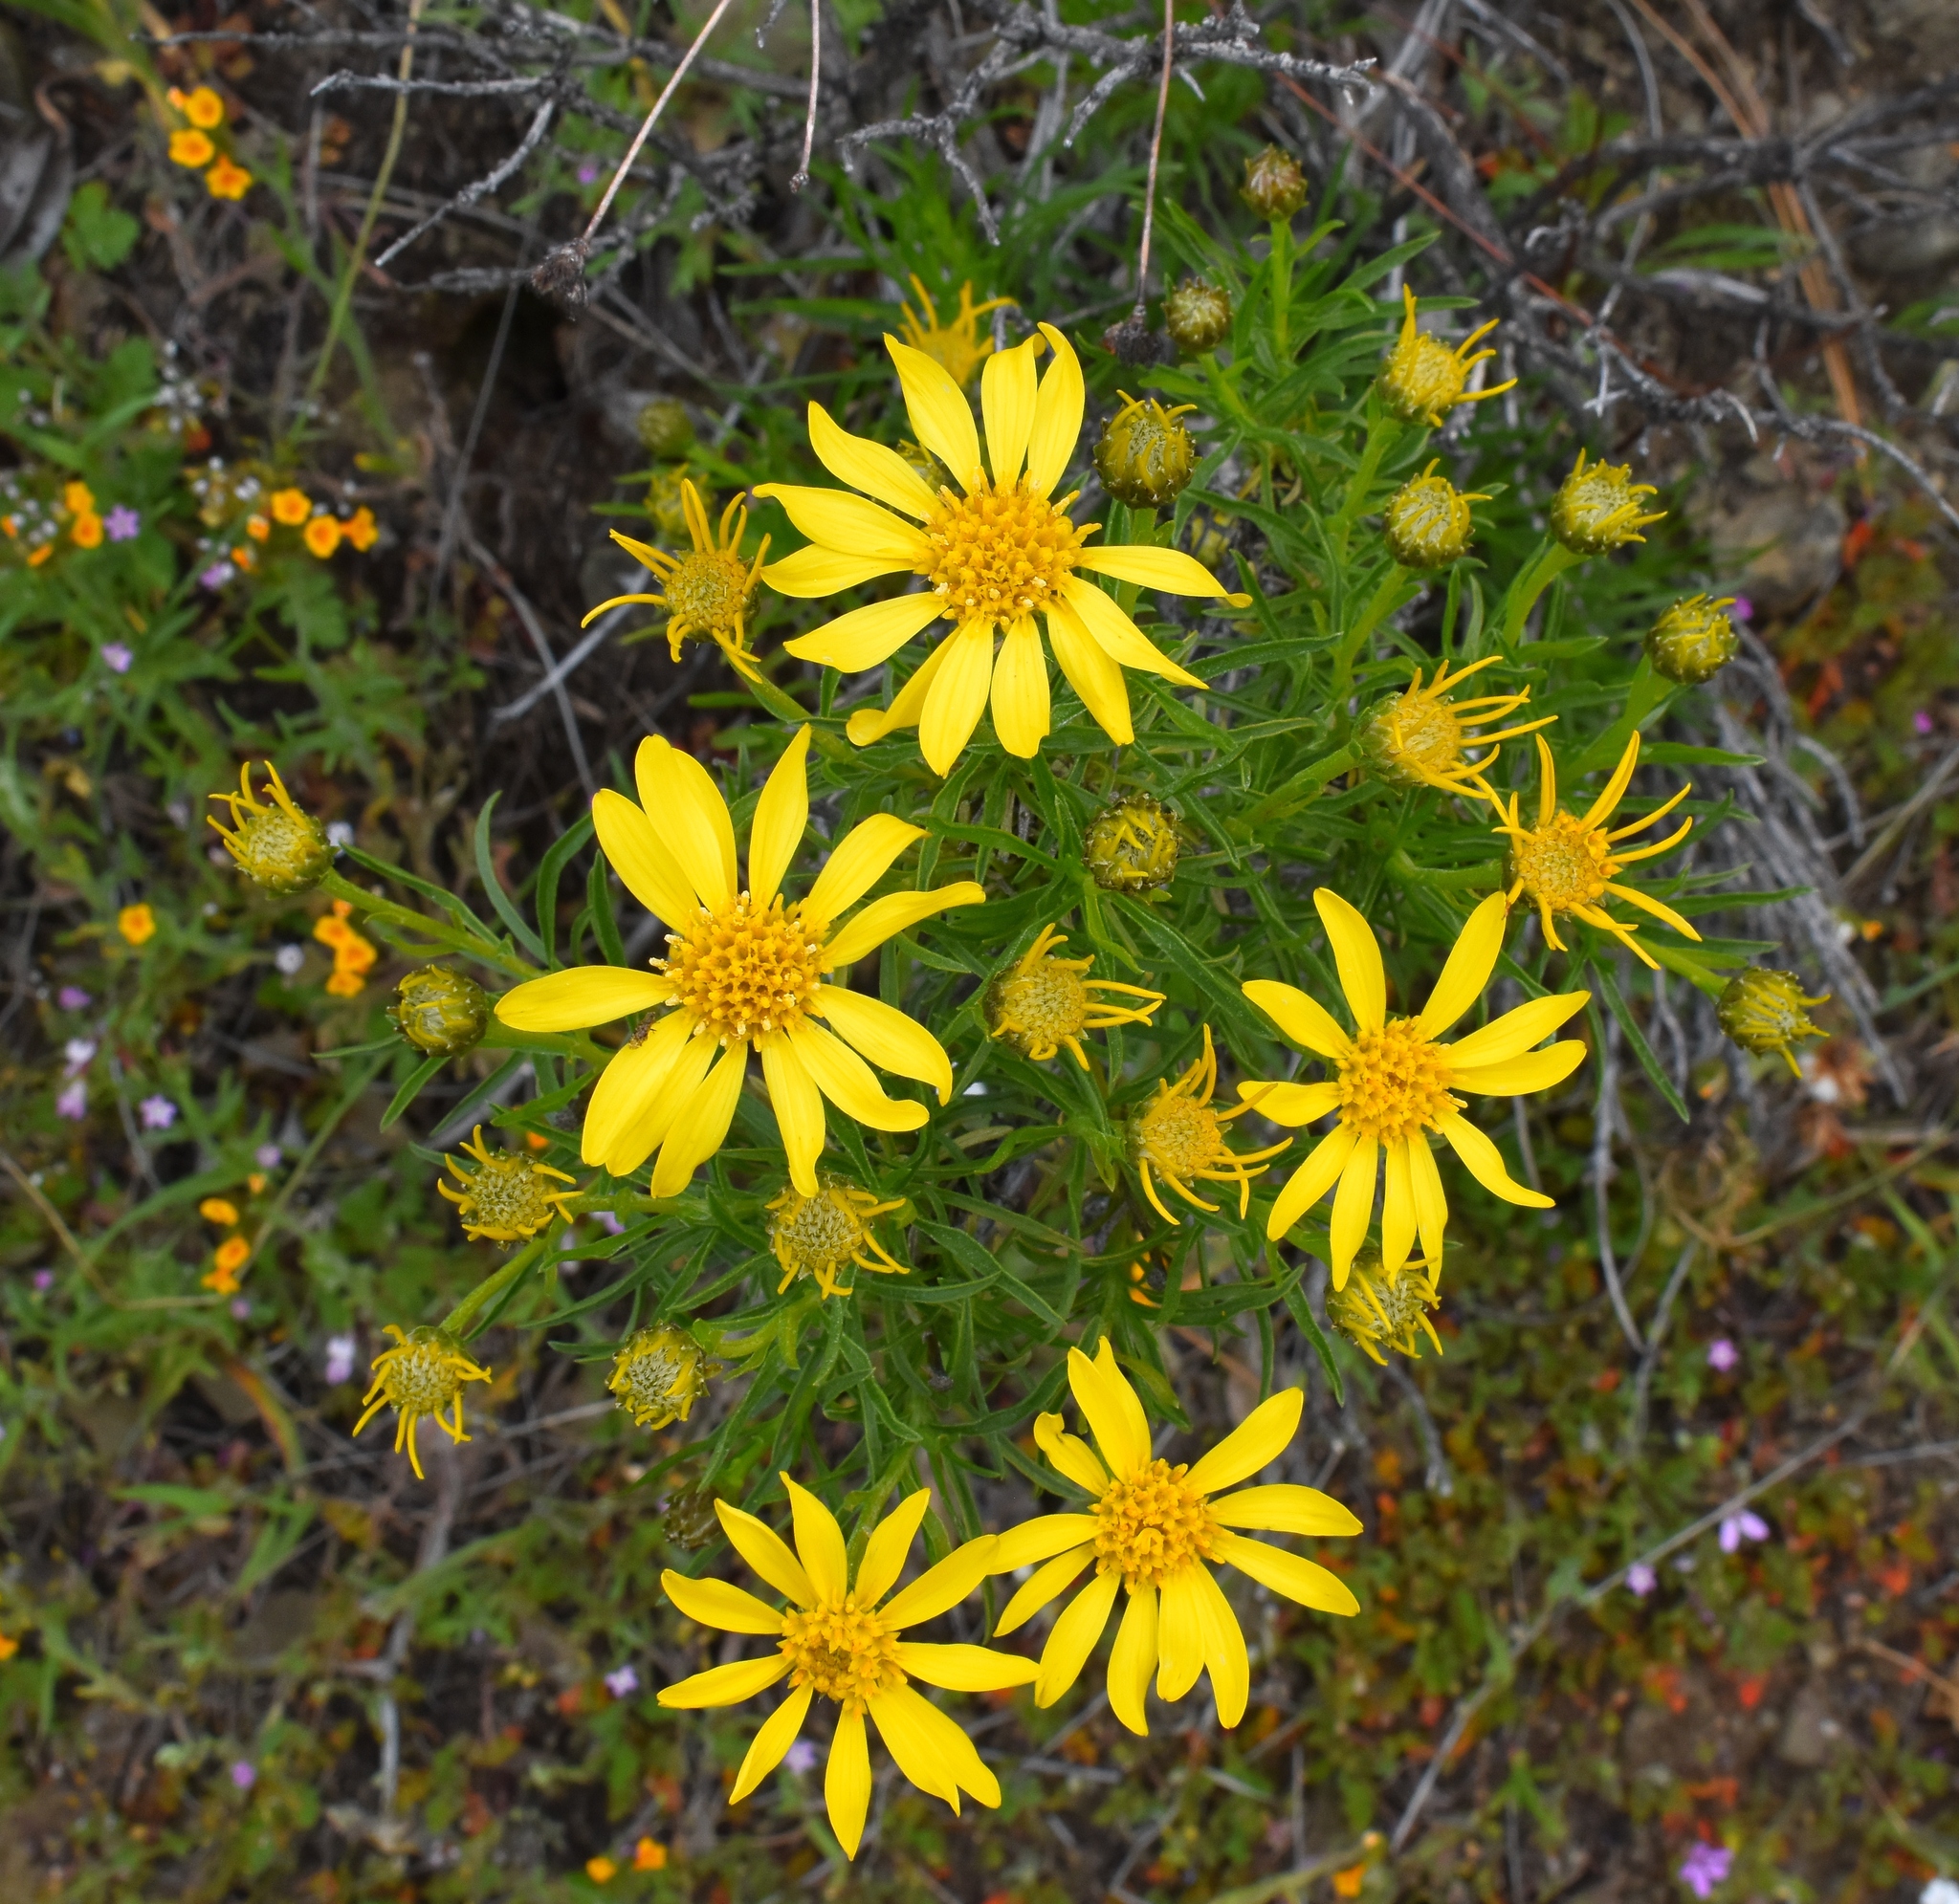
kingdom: Plantae
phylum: Tracheophyta
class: Magnoliopsida
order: Asterales
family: Asteraceae
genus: Ericameria
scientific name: Ericameria linearifolia
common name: Interior goldenbush
